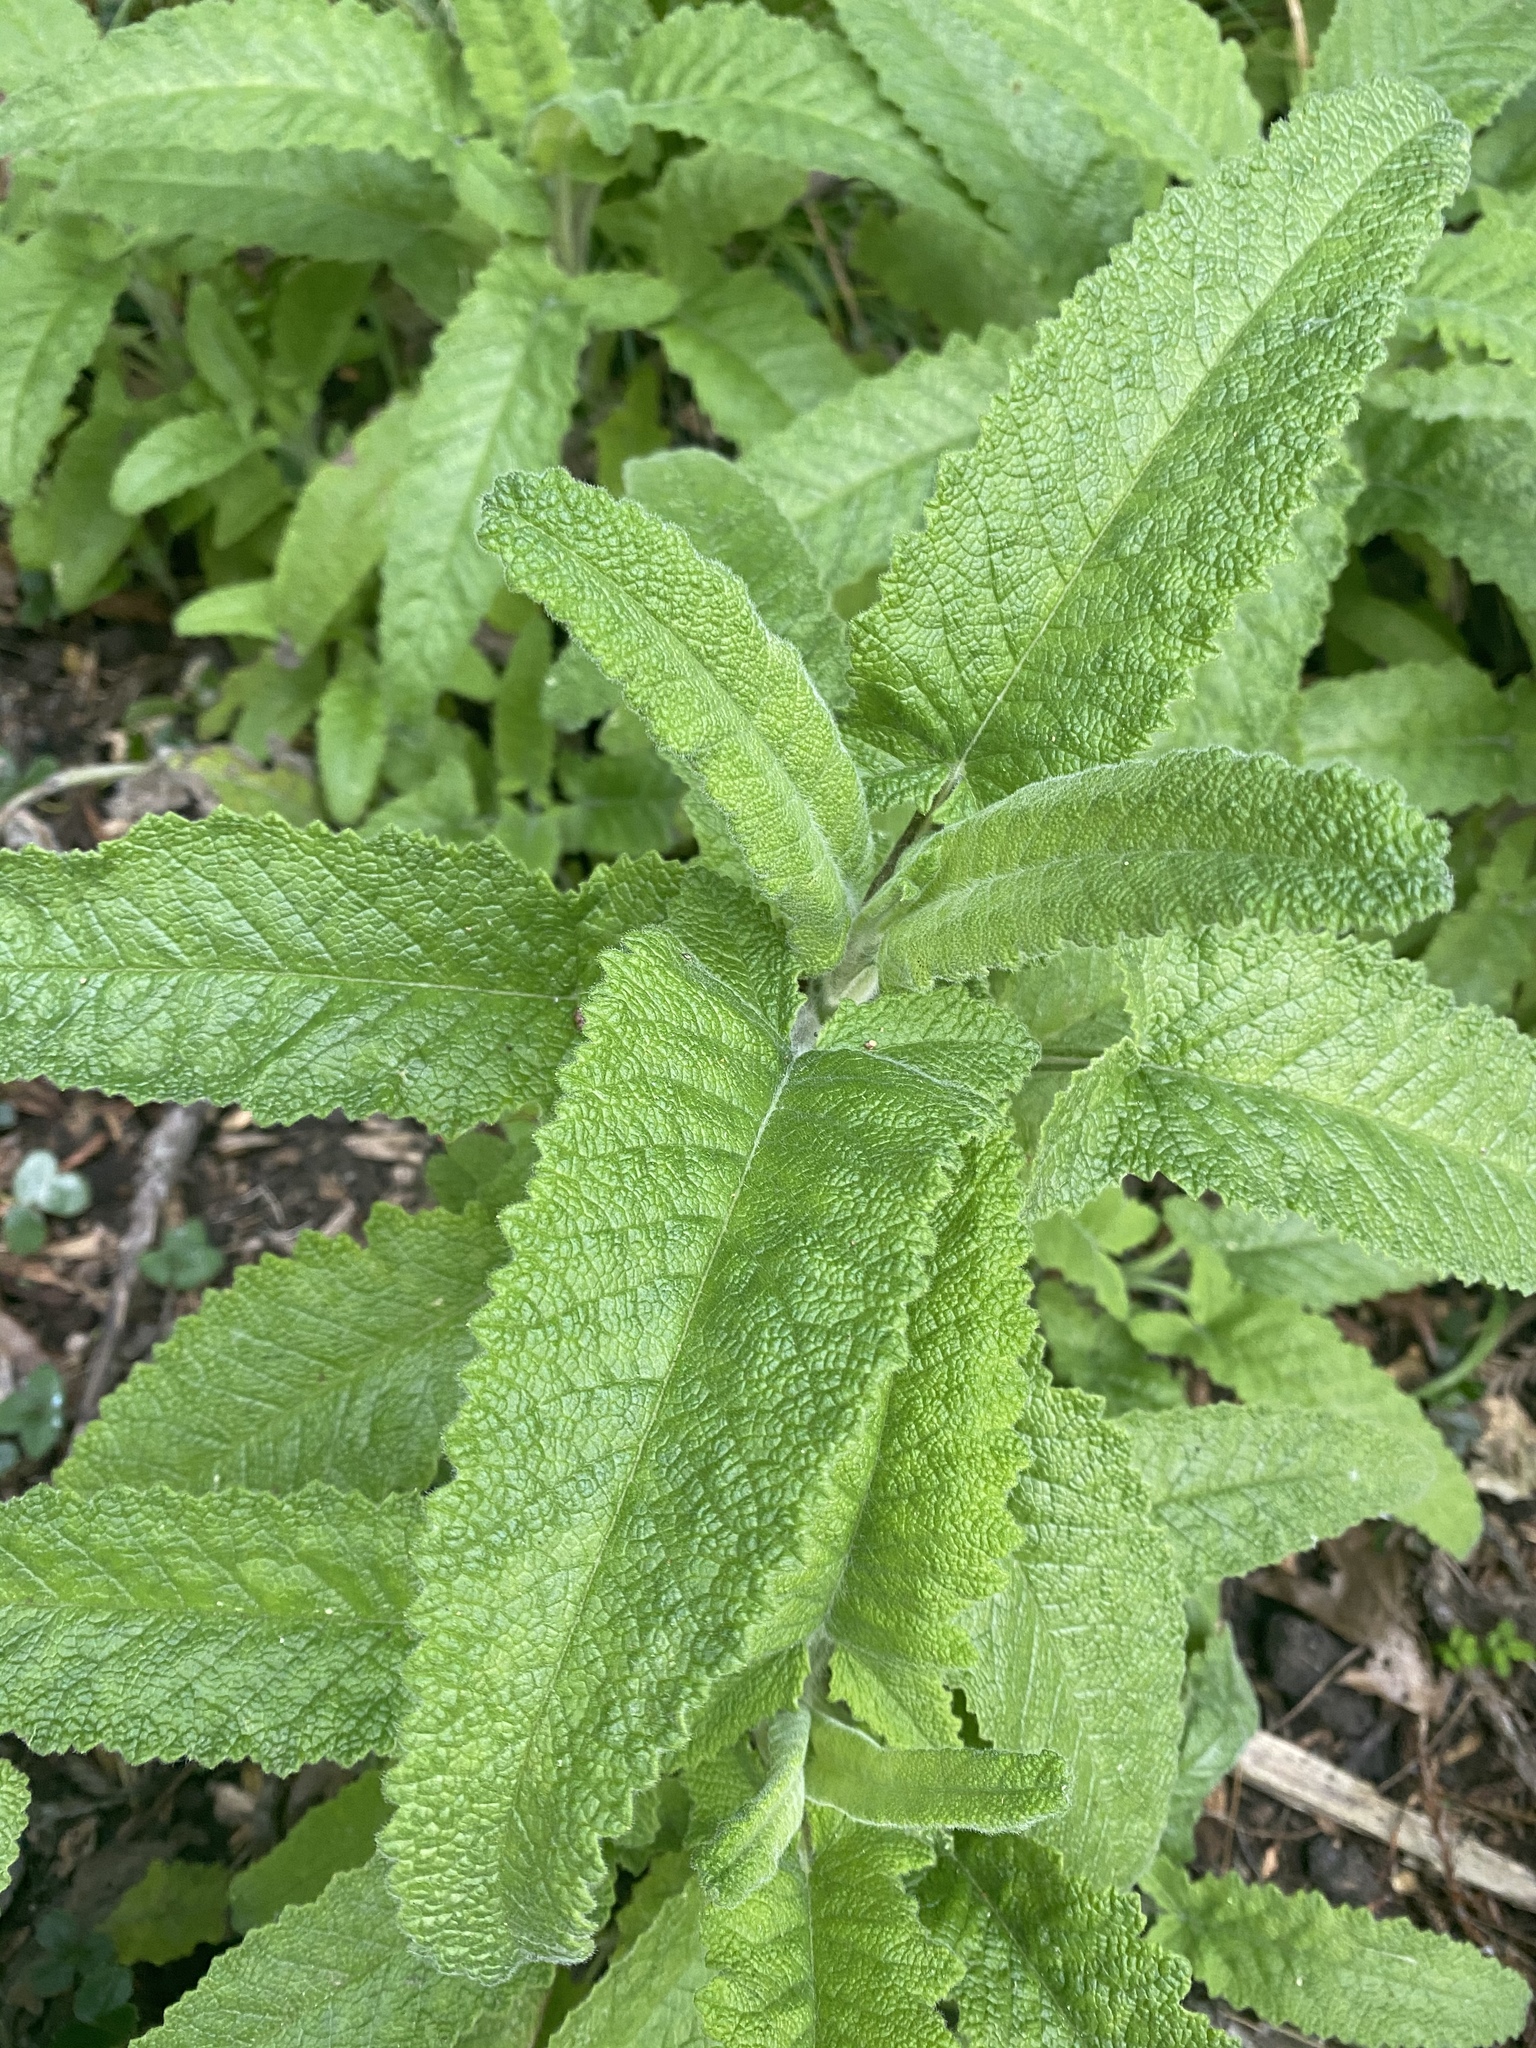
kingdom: Plantae
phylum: Tracheophyta
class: Magnoliopsida
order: Lamiales
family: Lamiaceae
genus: Salvia
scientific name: Salvia spathacea
